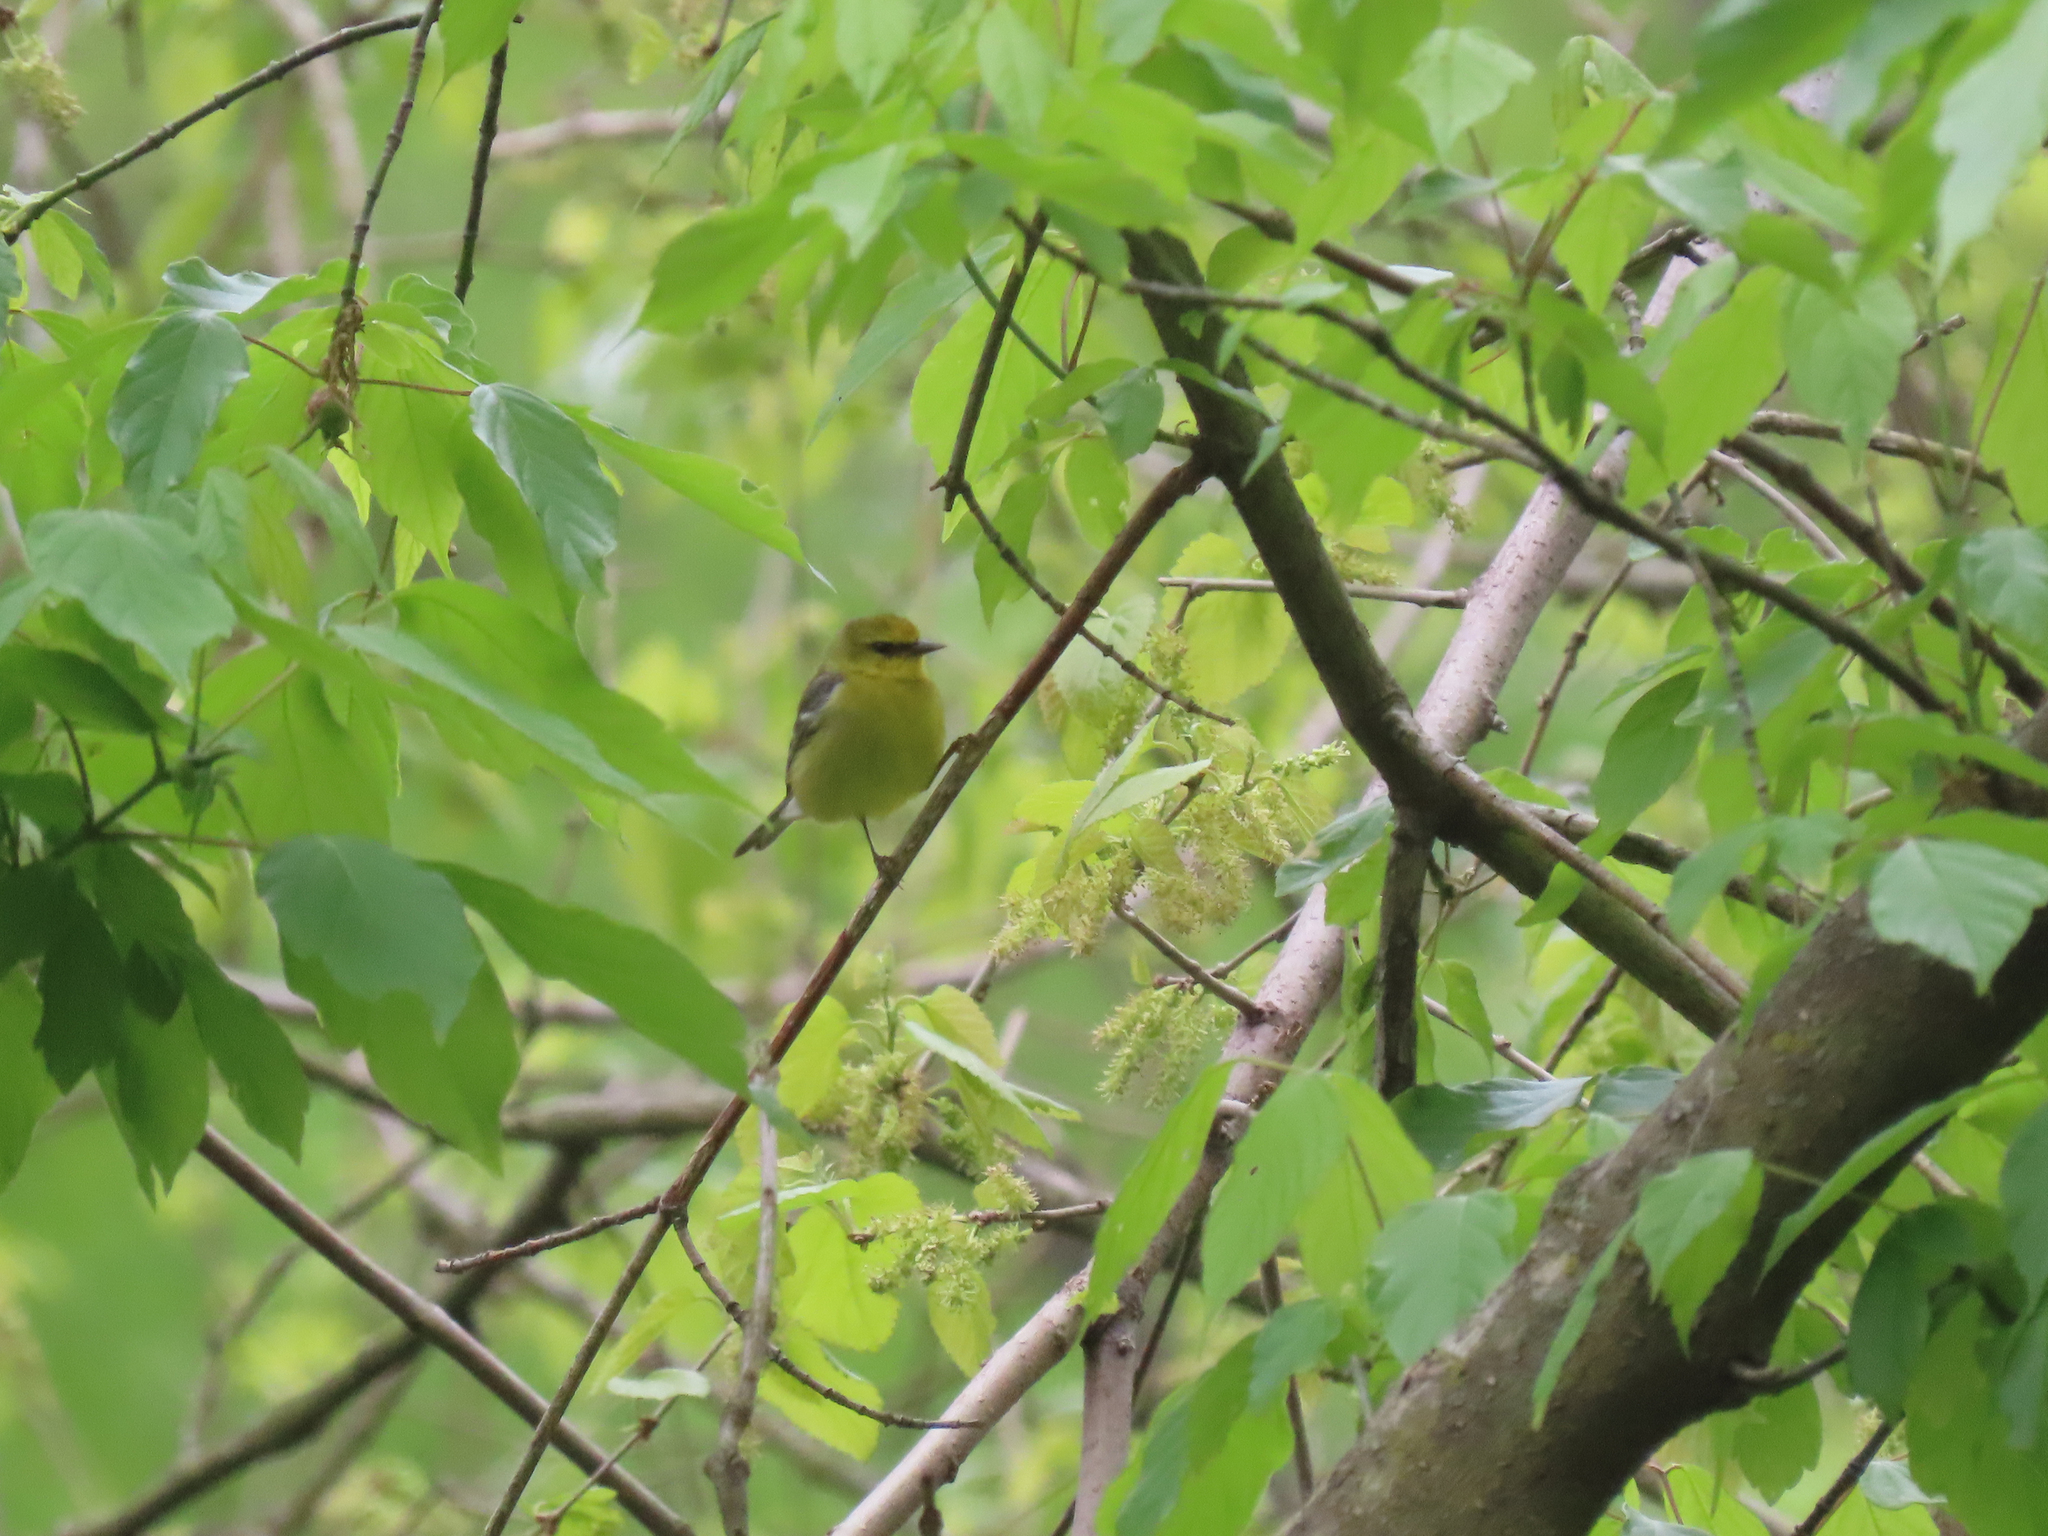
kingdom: Animalia
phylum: Chordata
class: Aves
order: Passeriformes
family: Parulidae
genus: Vermivora
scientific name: Vermivora cyanoptera
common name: Blue-winged warbler
